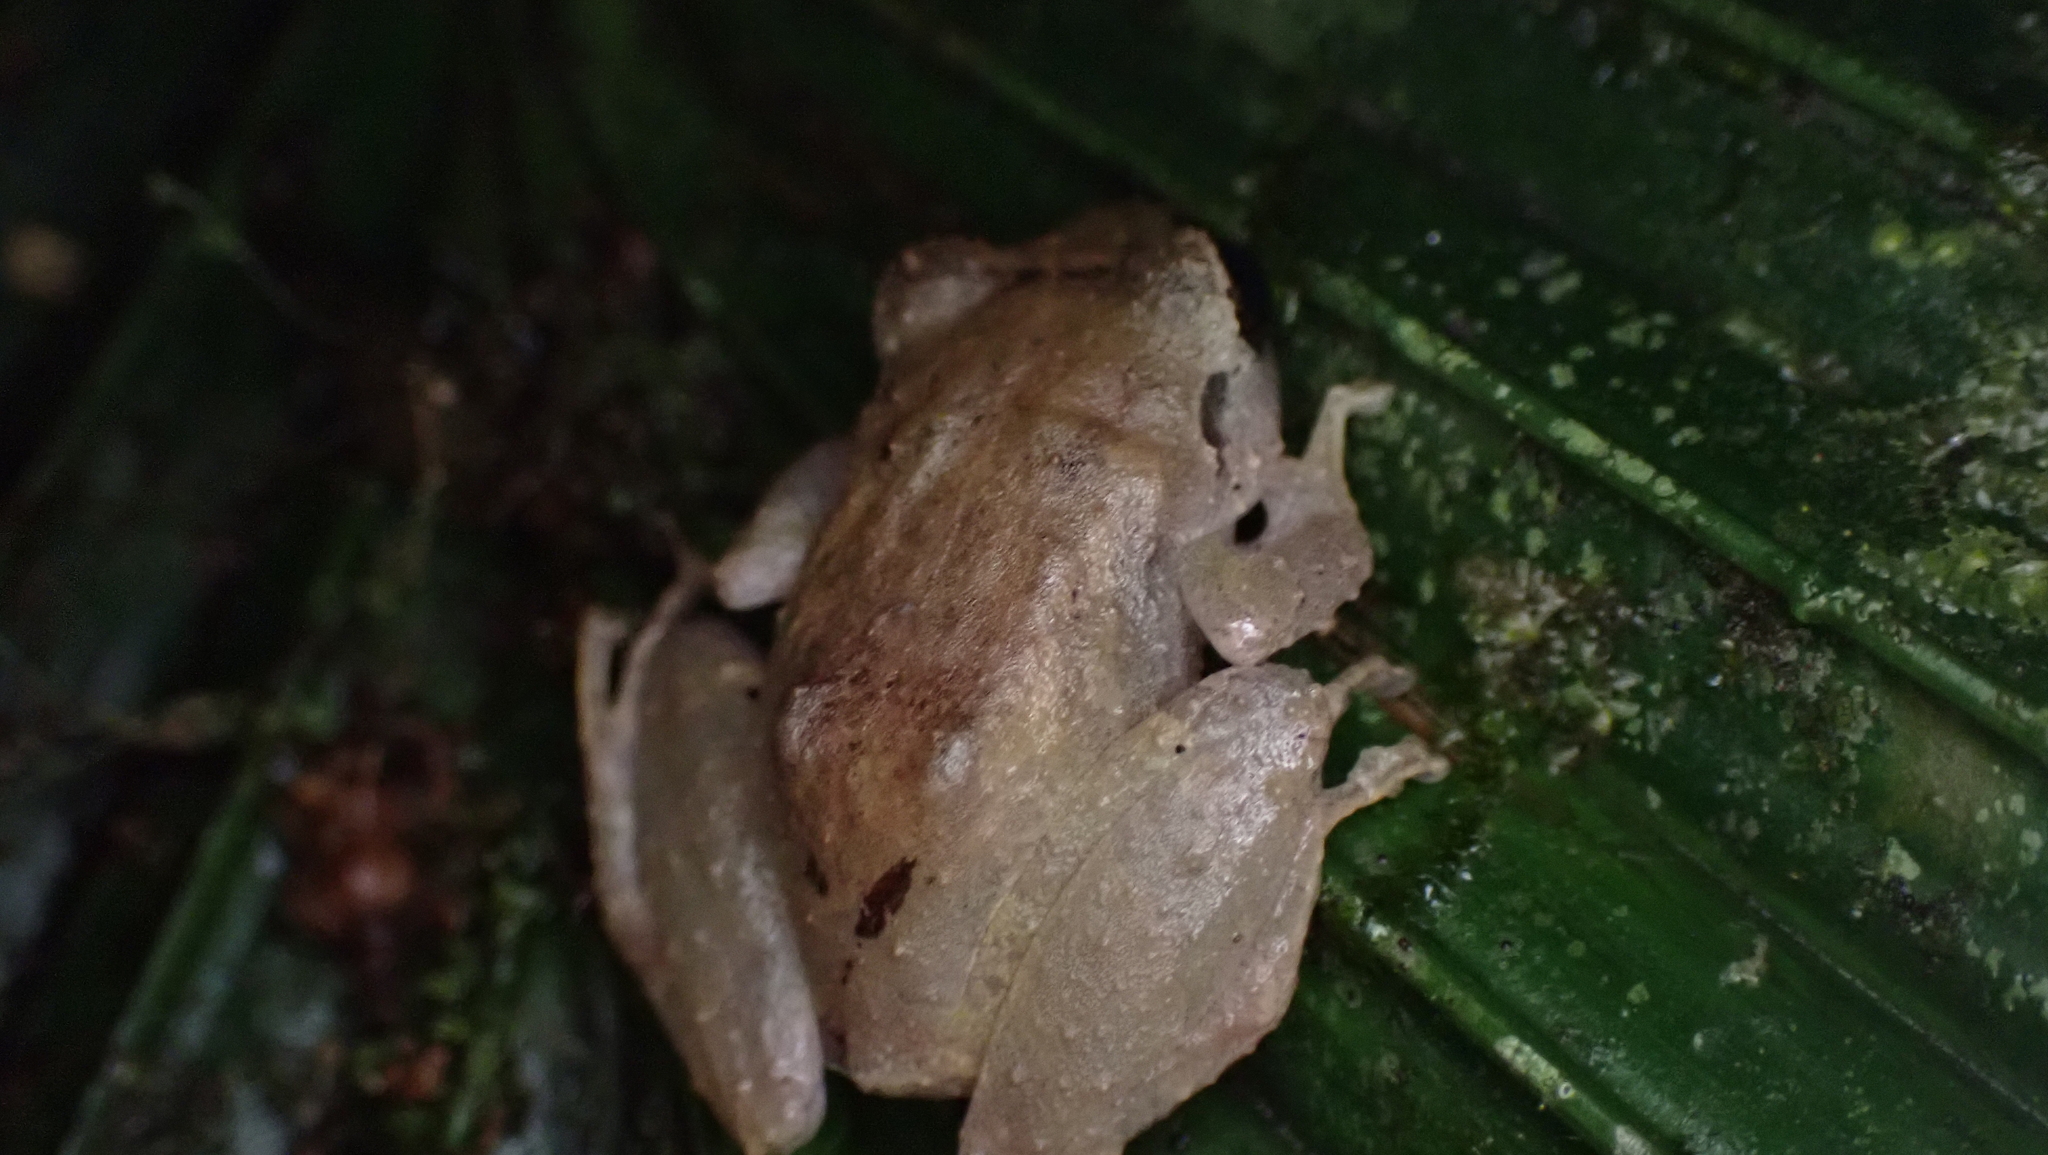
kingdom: Animalia
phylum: Chordata
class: Amphibia
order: Anura
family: Craugastoridae
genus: Pristimantis
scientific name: Pristimantis ridens
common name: Rio san juan robber frog
